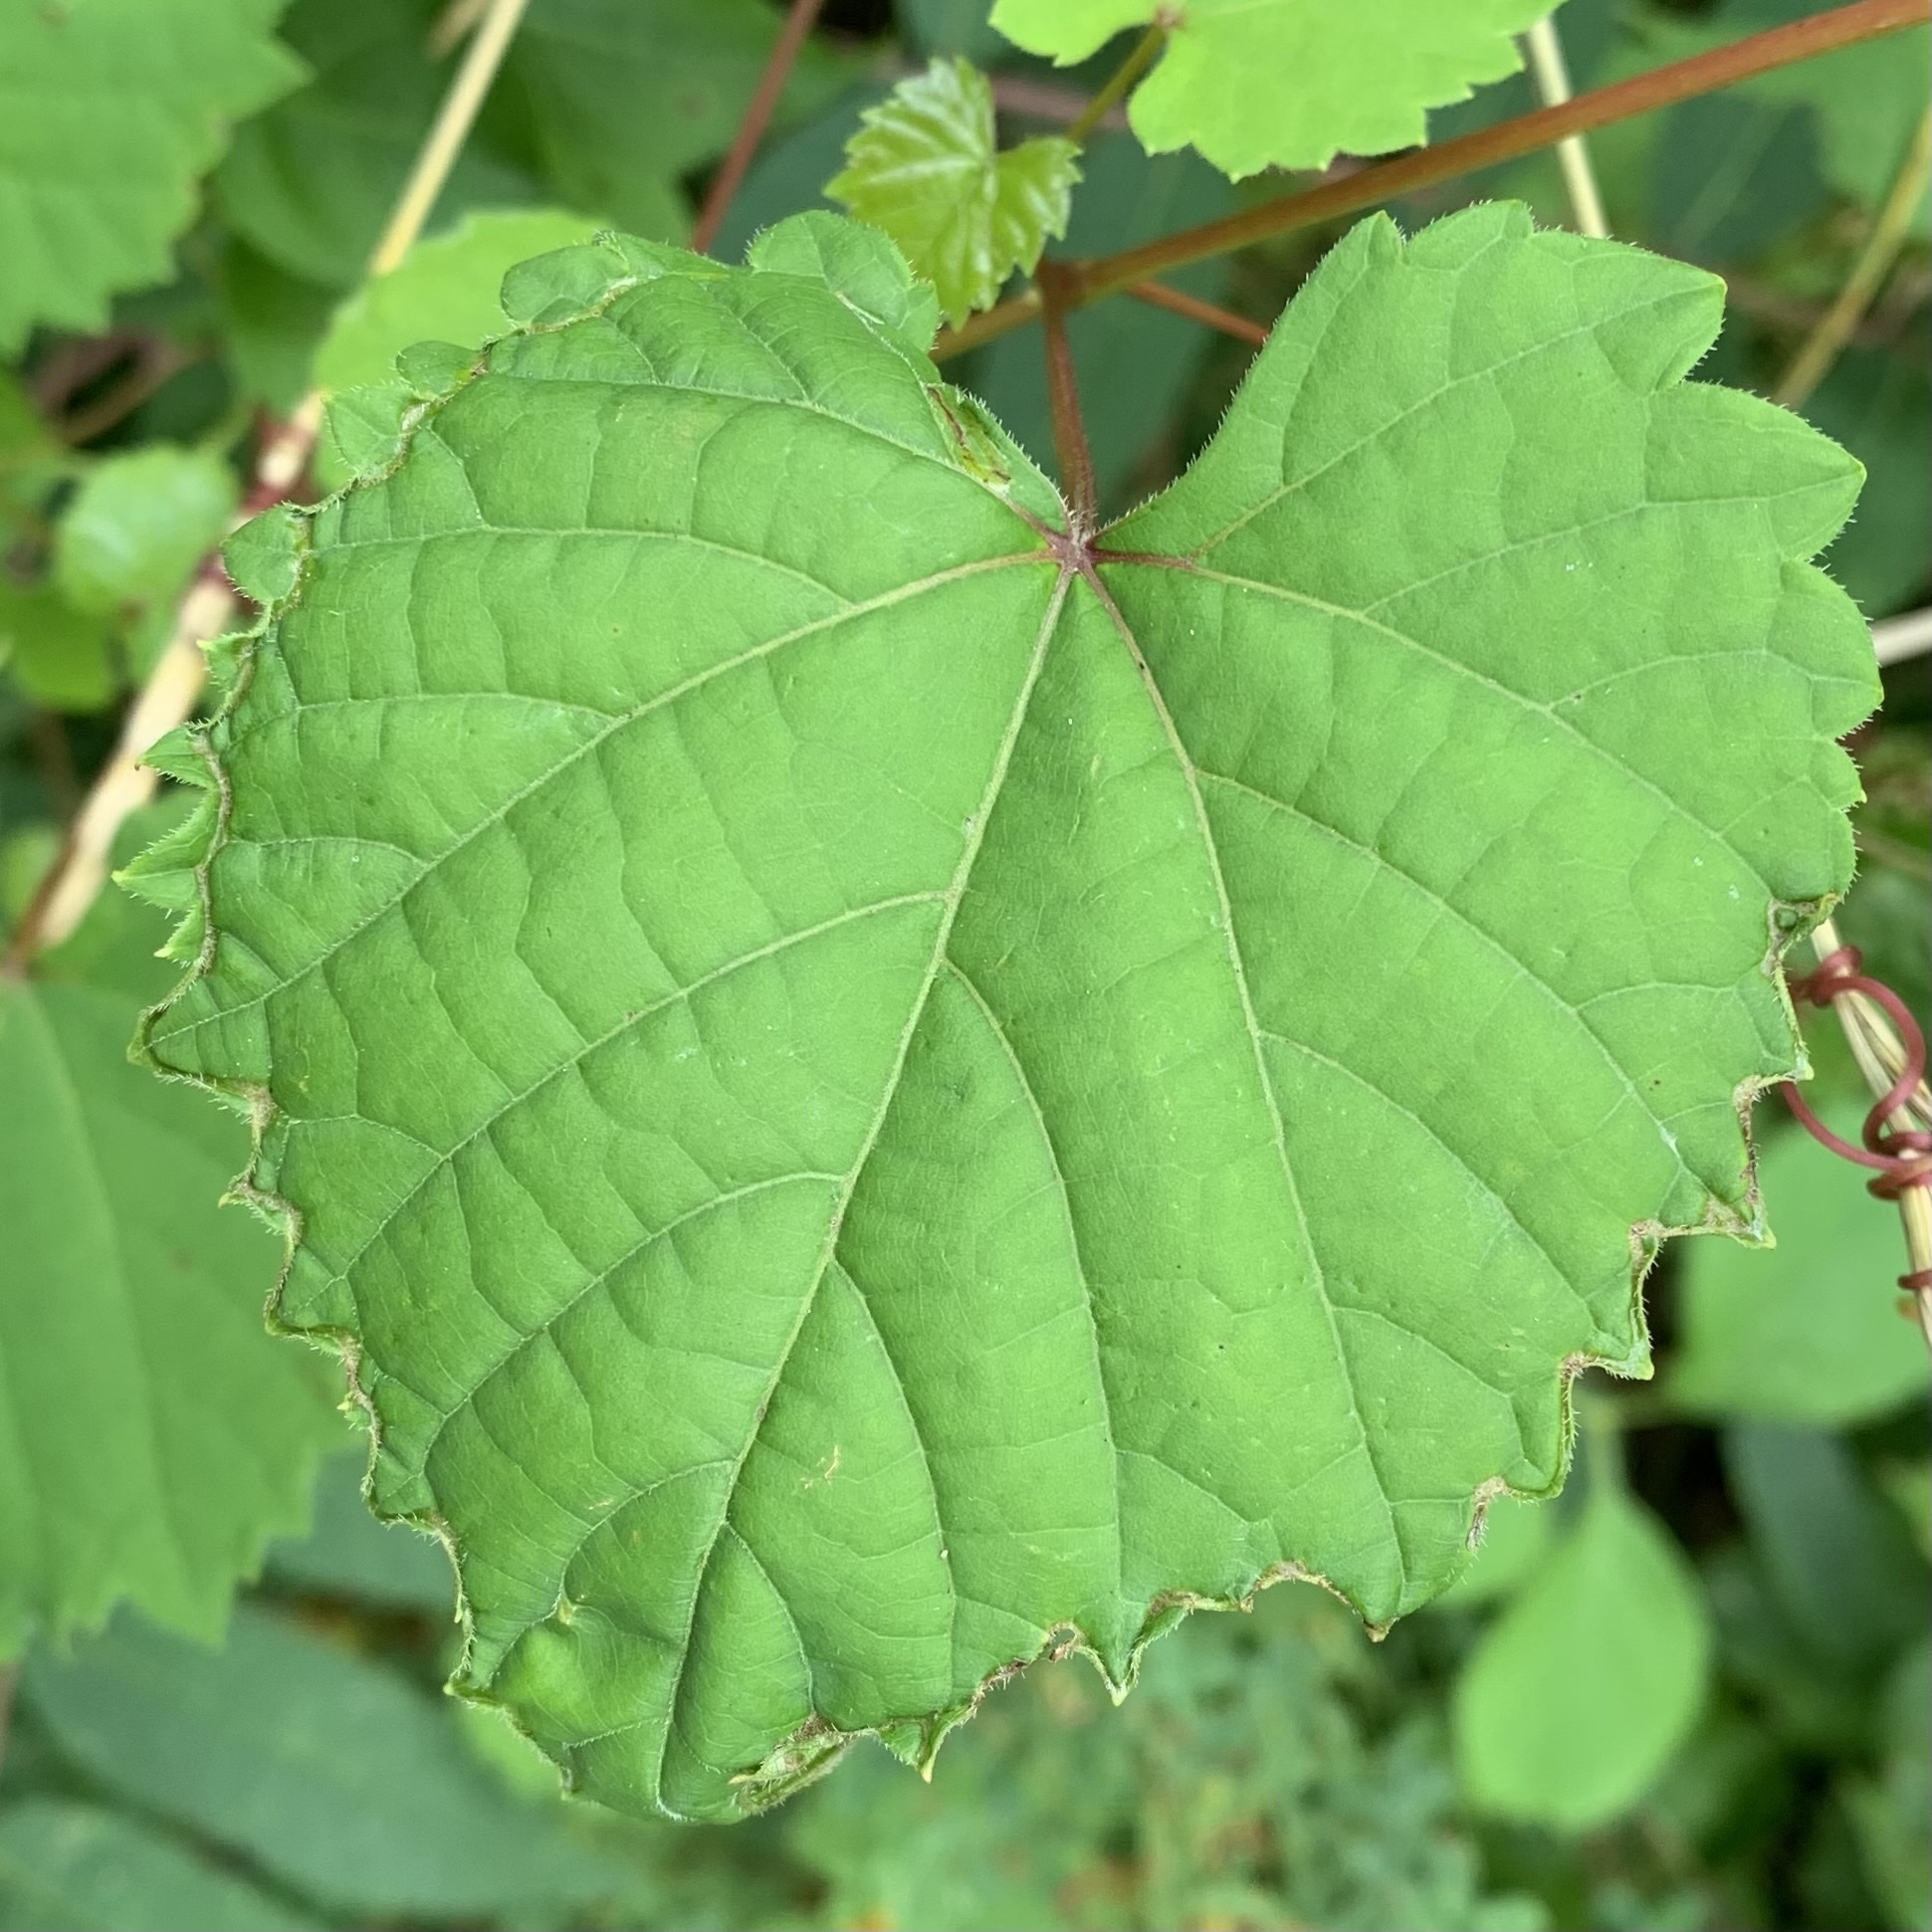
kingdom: Animalia
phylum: Arthropoda
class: Insecta
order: Lepidoptera
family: Gracillariidae
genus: Phyllocnistis
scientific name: Phyllocnistis vitegenella
